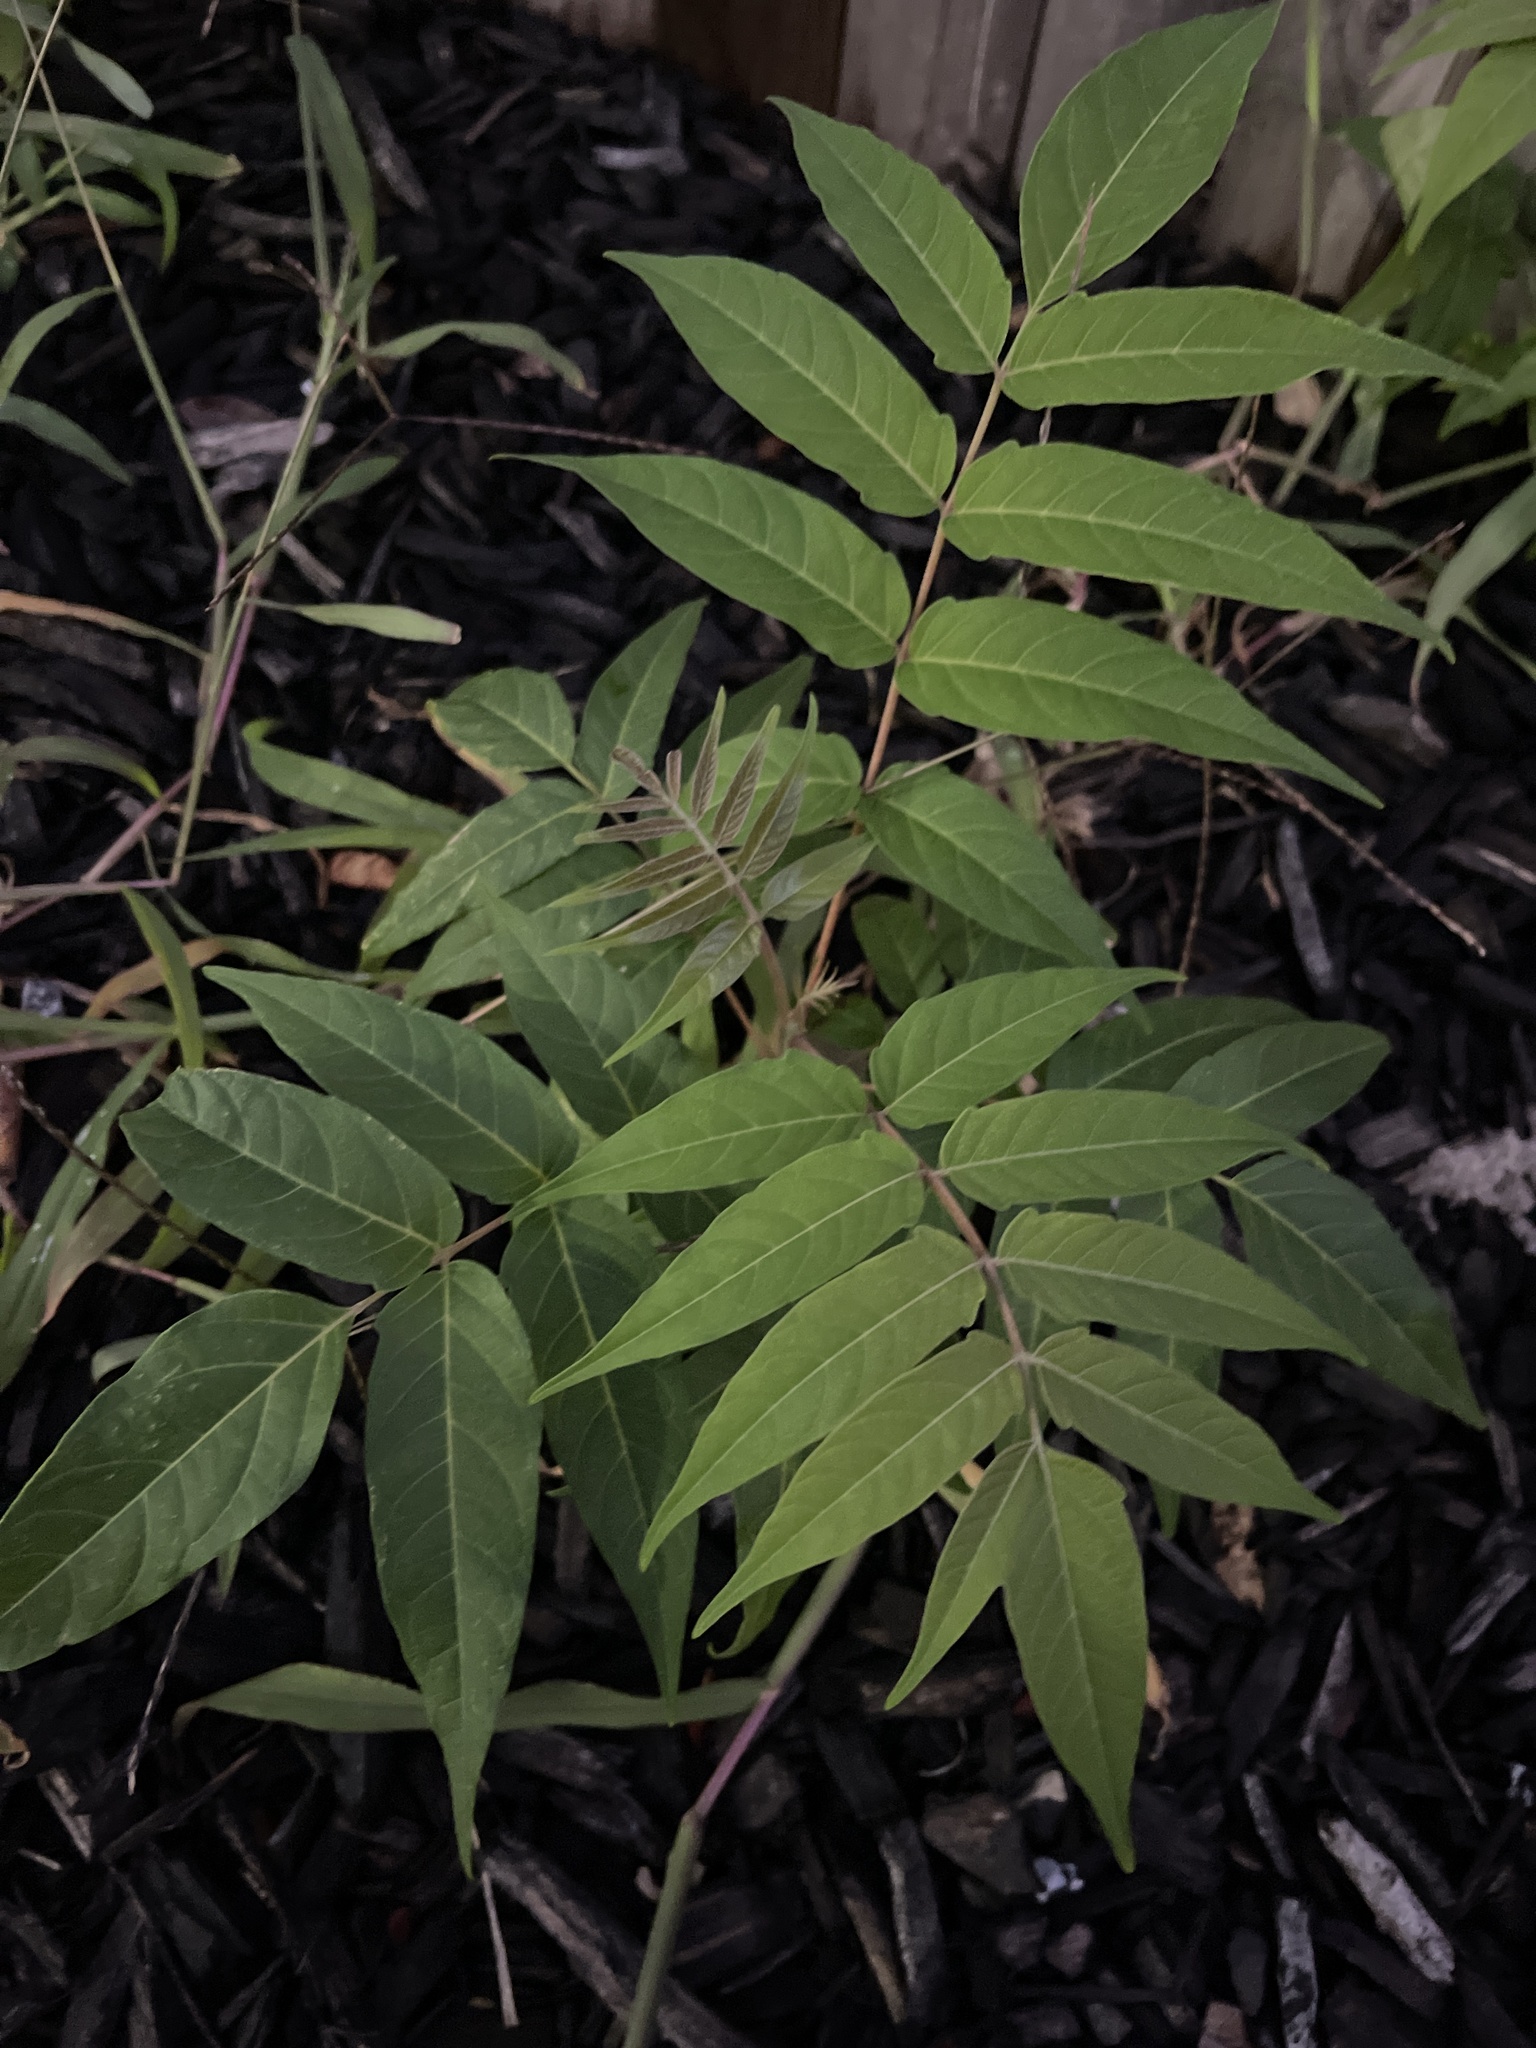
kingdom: Plantae
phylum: Tracheophyta
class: Magnoliopsida
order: Sapindales
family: Simaroubaceae
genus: Ailanthus
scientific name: Ailanthus altissima
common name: Tree-of-heaven
